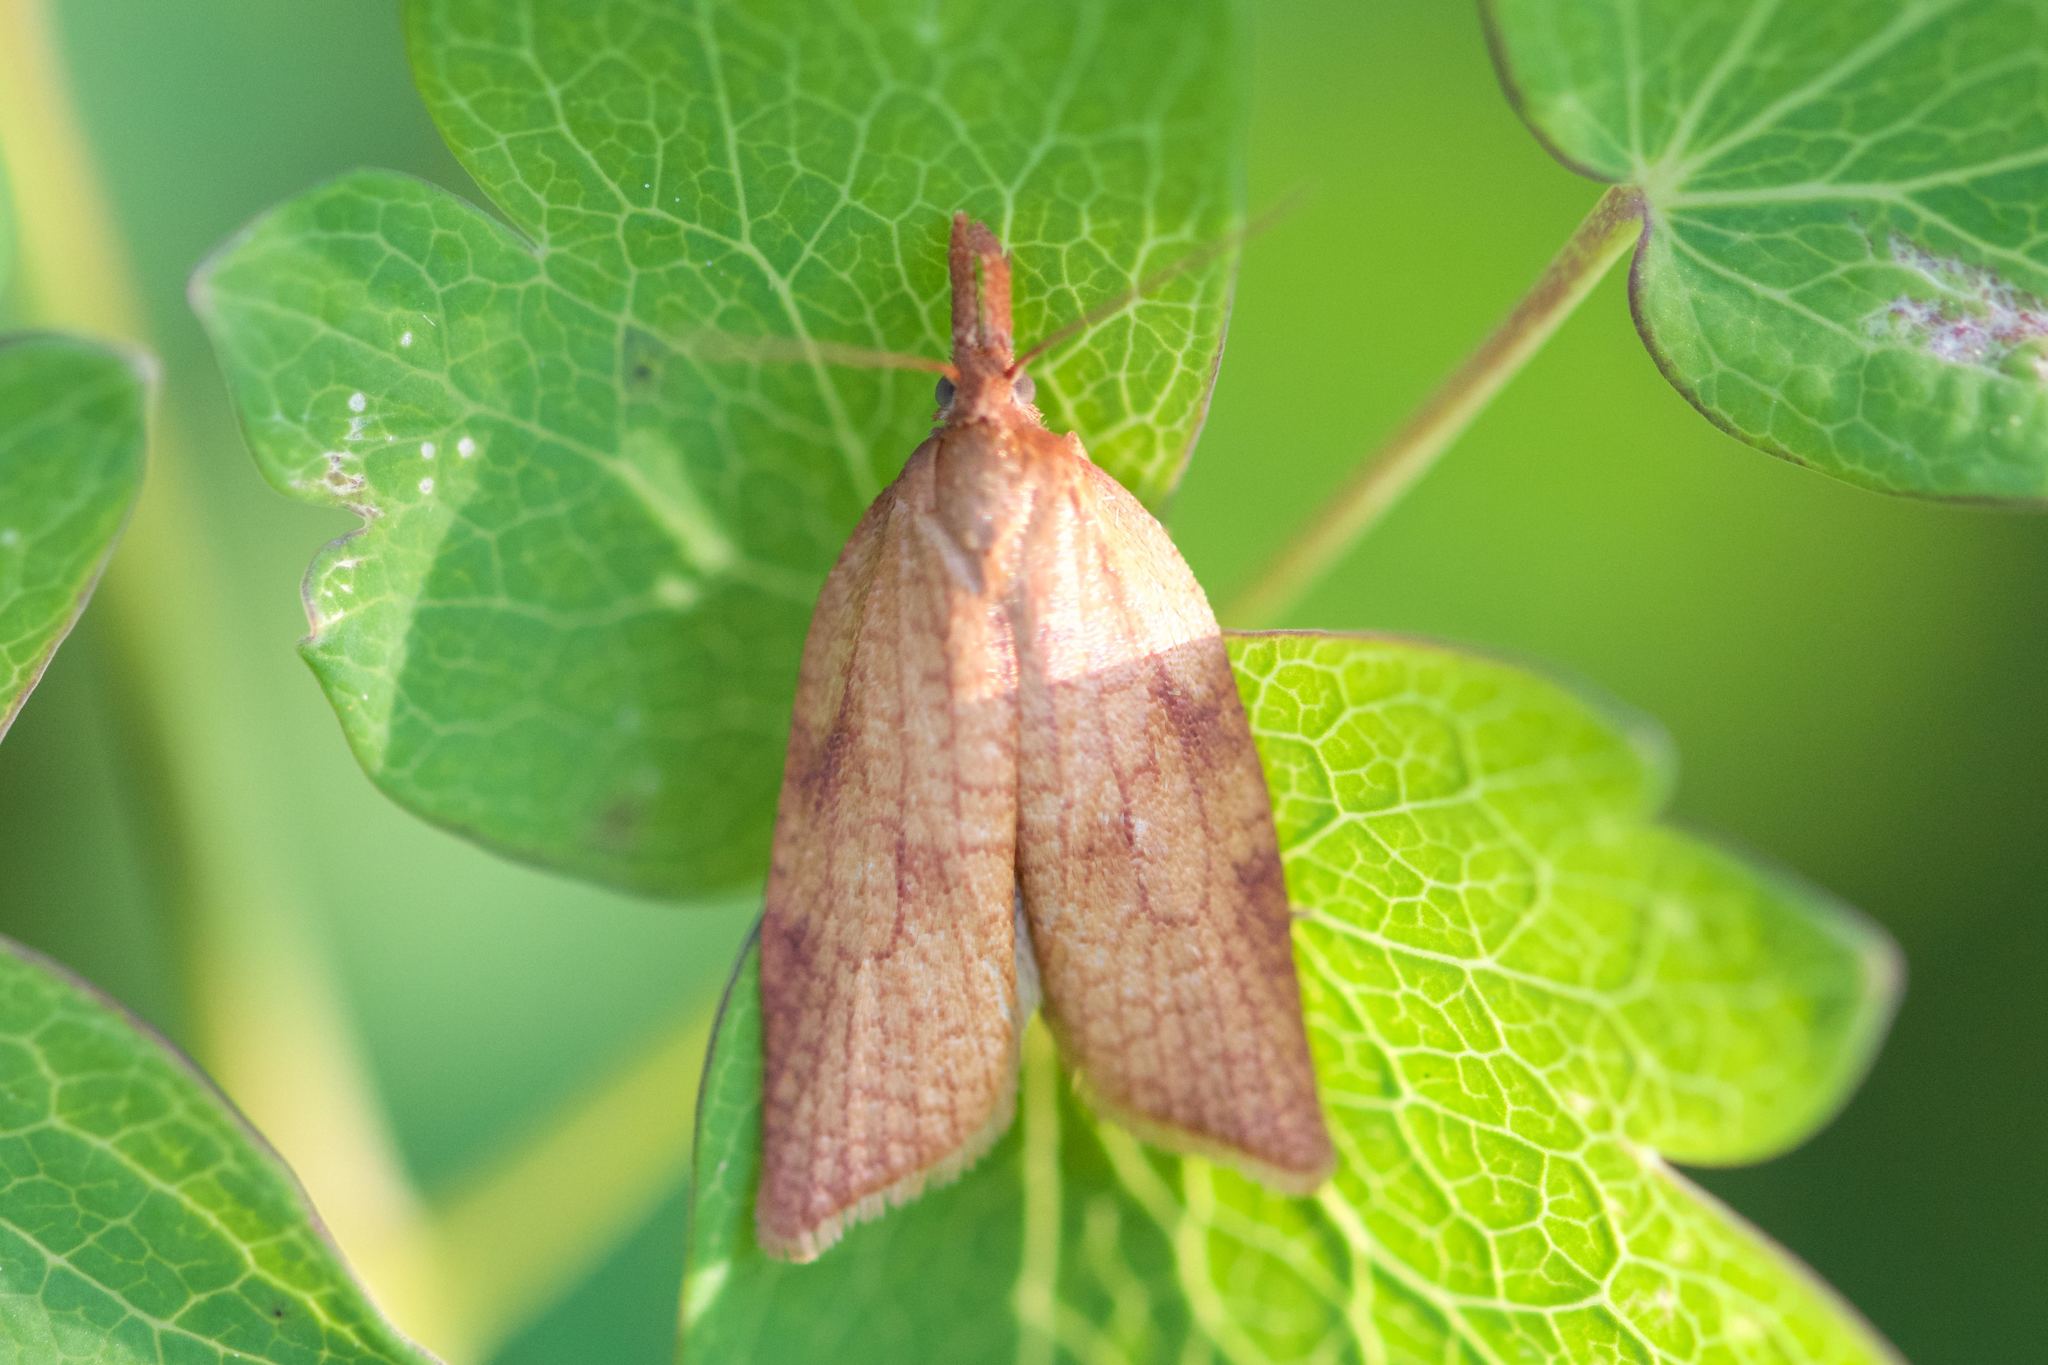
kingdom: Animalia
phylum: Arthropoda
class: Insecta
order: Lepidoptera
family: Tortricidae
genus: Sparganothis
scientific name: Sparganothis boweri
